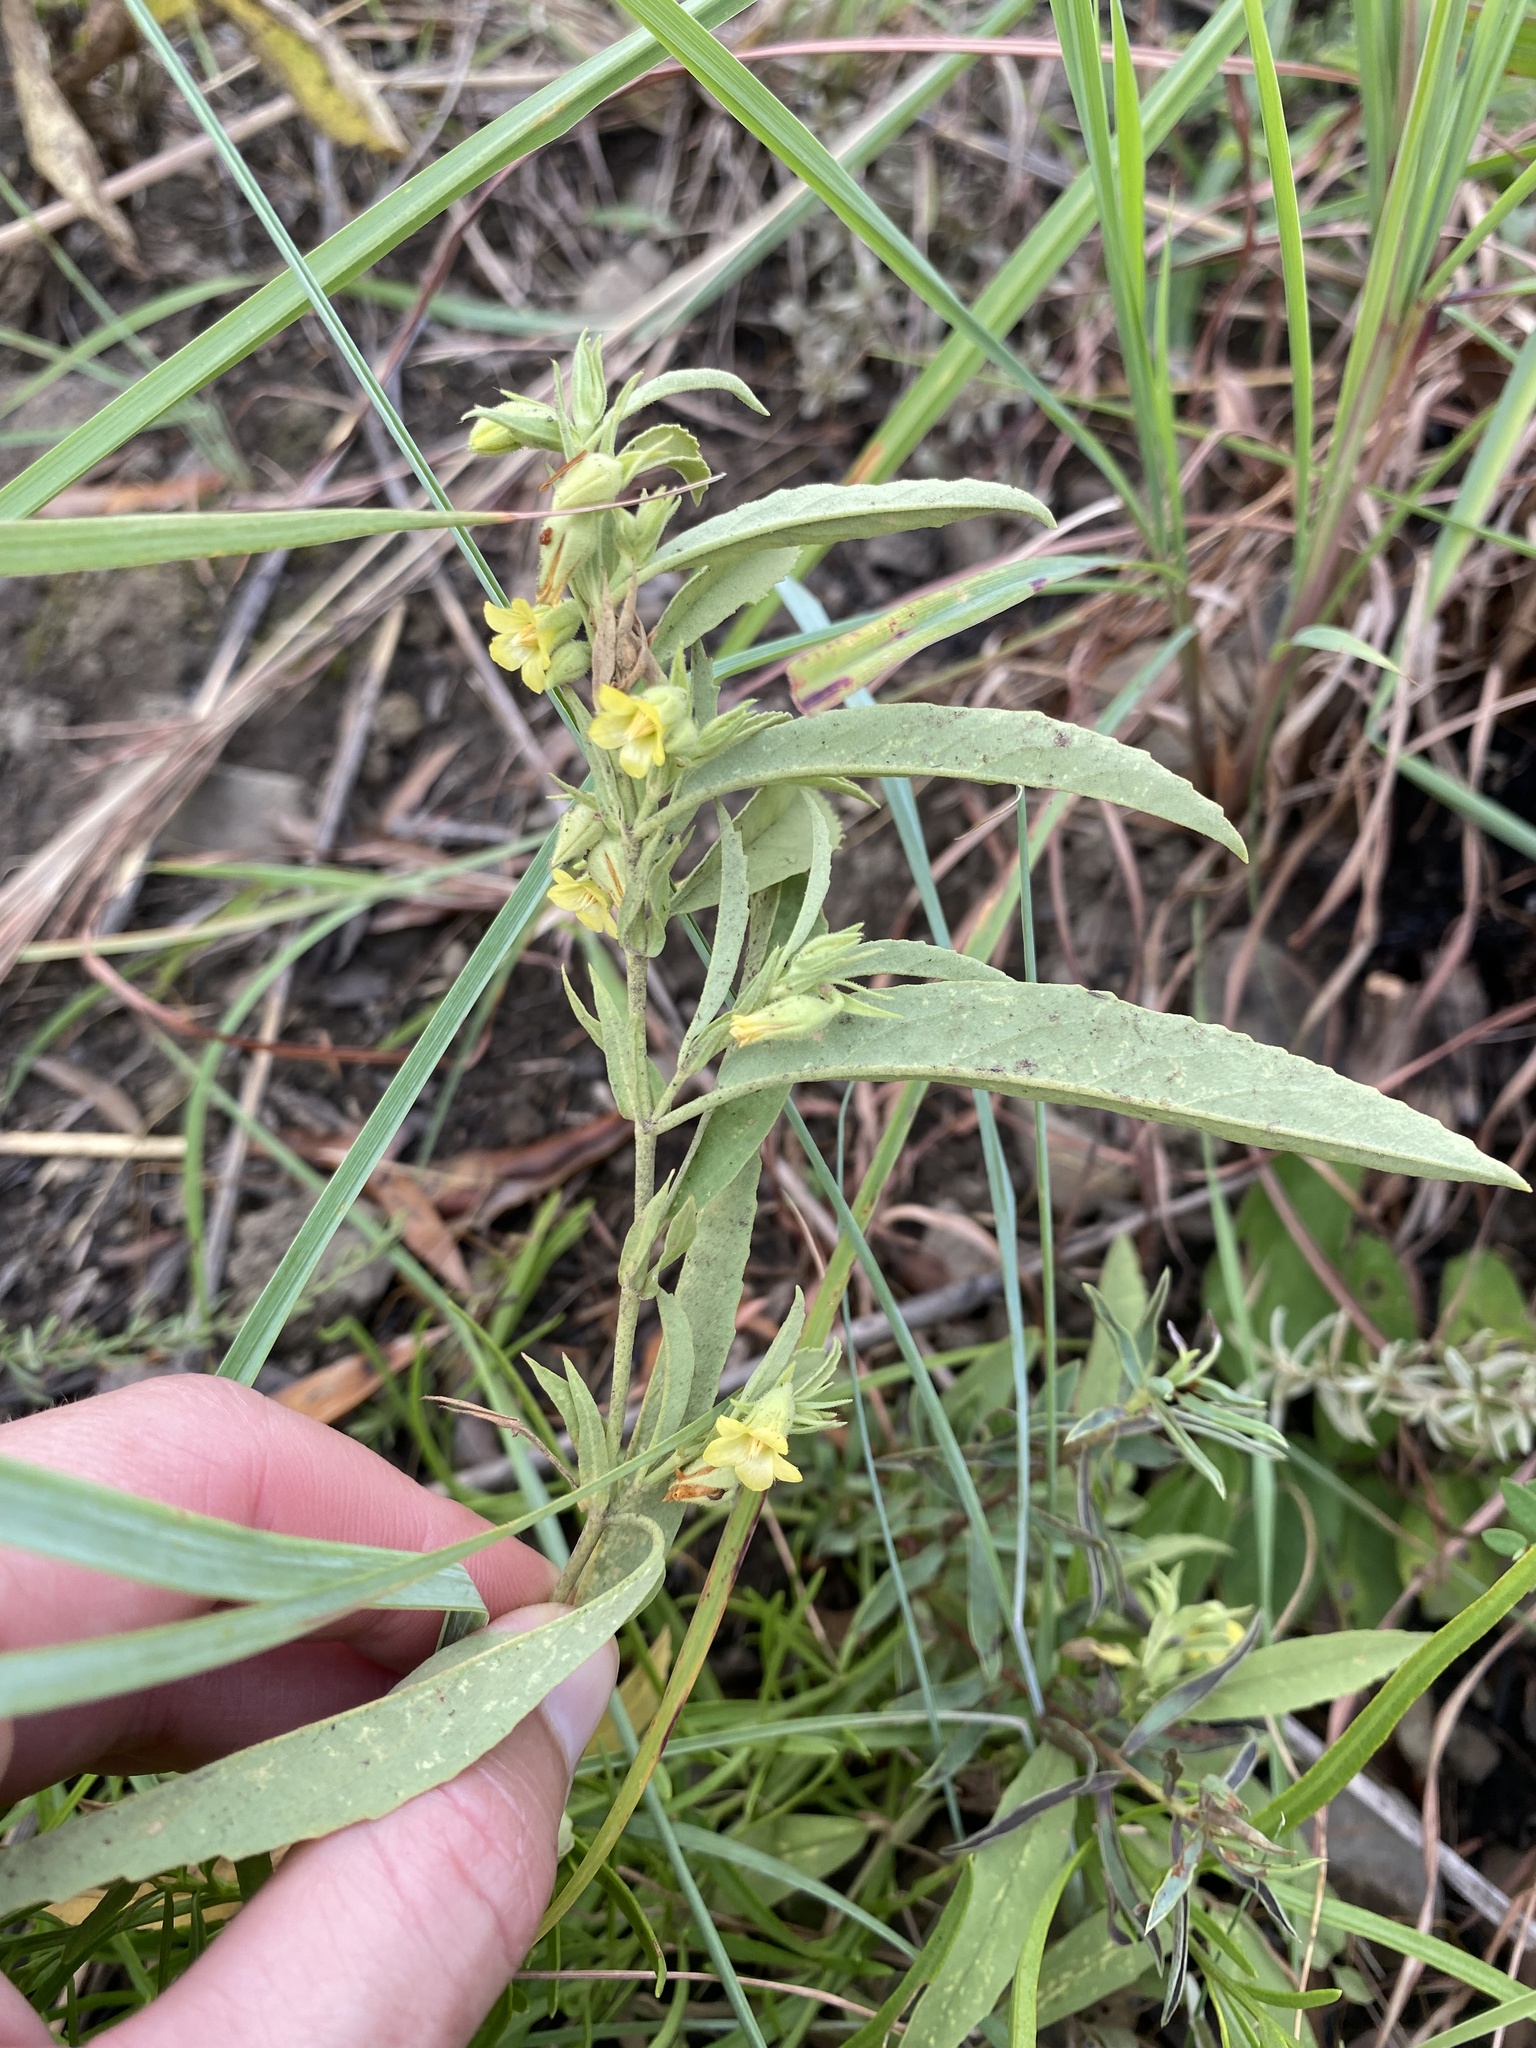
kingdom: Plantae
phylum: Tracheophyta
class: Magnoliopsida
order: Malvales
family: Malvaceae
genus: Hermannia
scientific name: Hermannia montana
